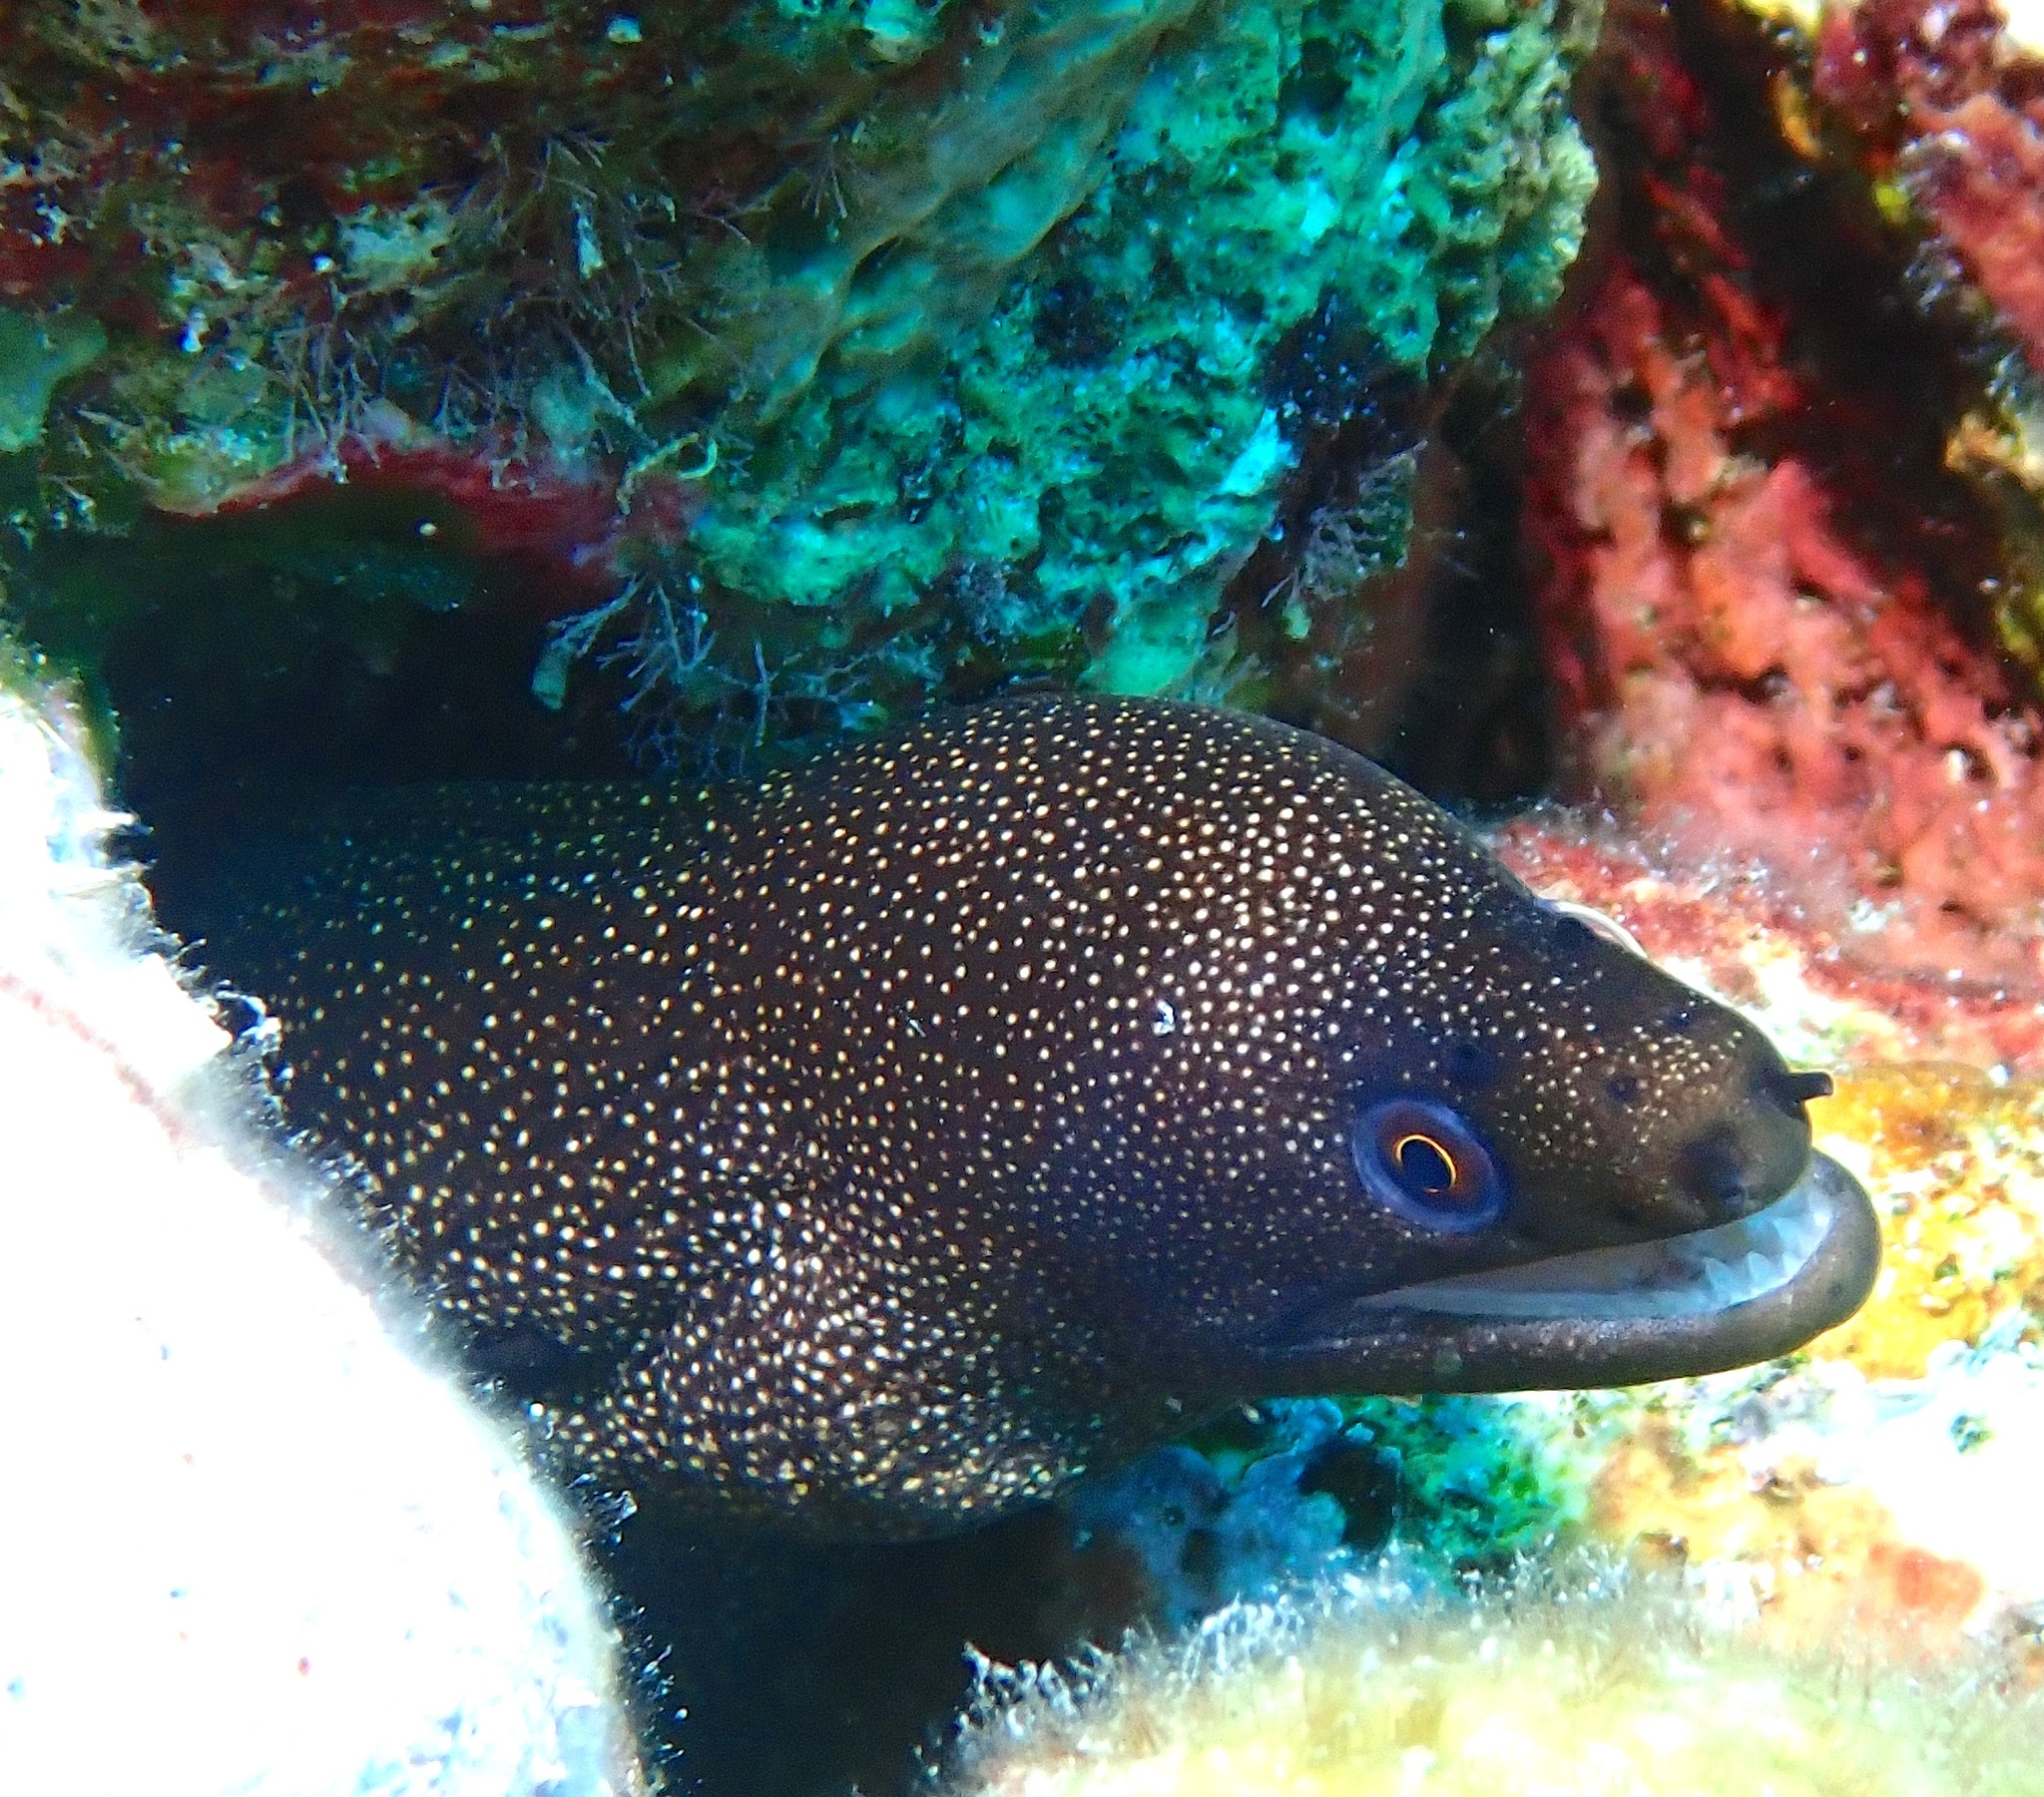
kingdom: Animalia
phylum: Chordata
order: Anguilliformes
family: Muraenidae
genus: Gymnothorax
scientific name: Gymnothorax miliaris
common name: Goldentail moray
